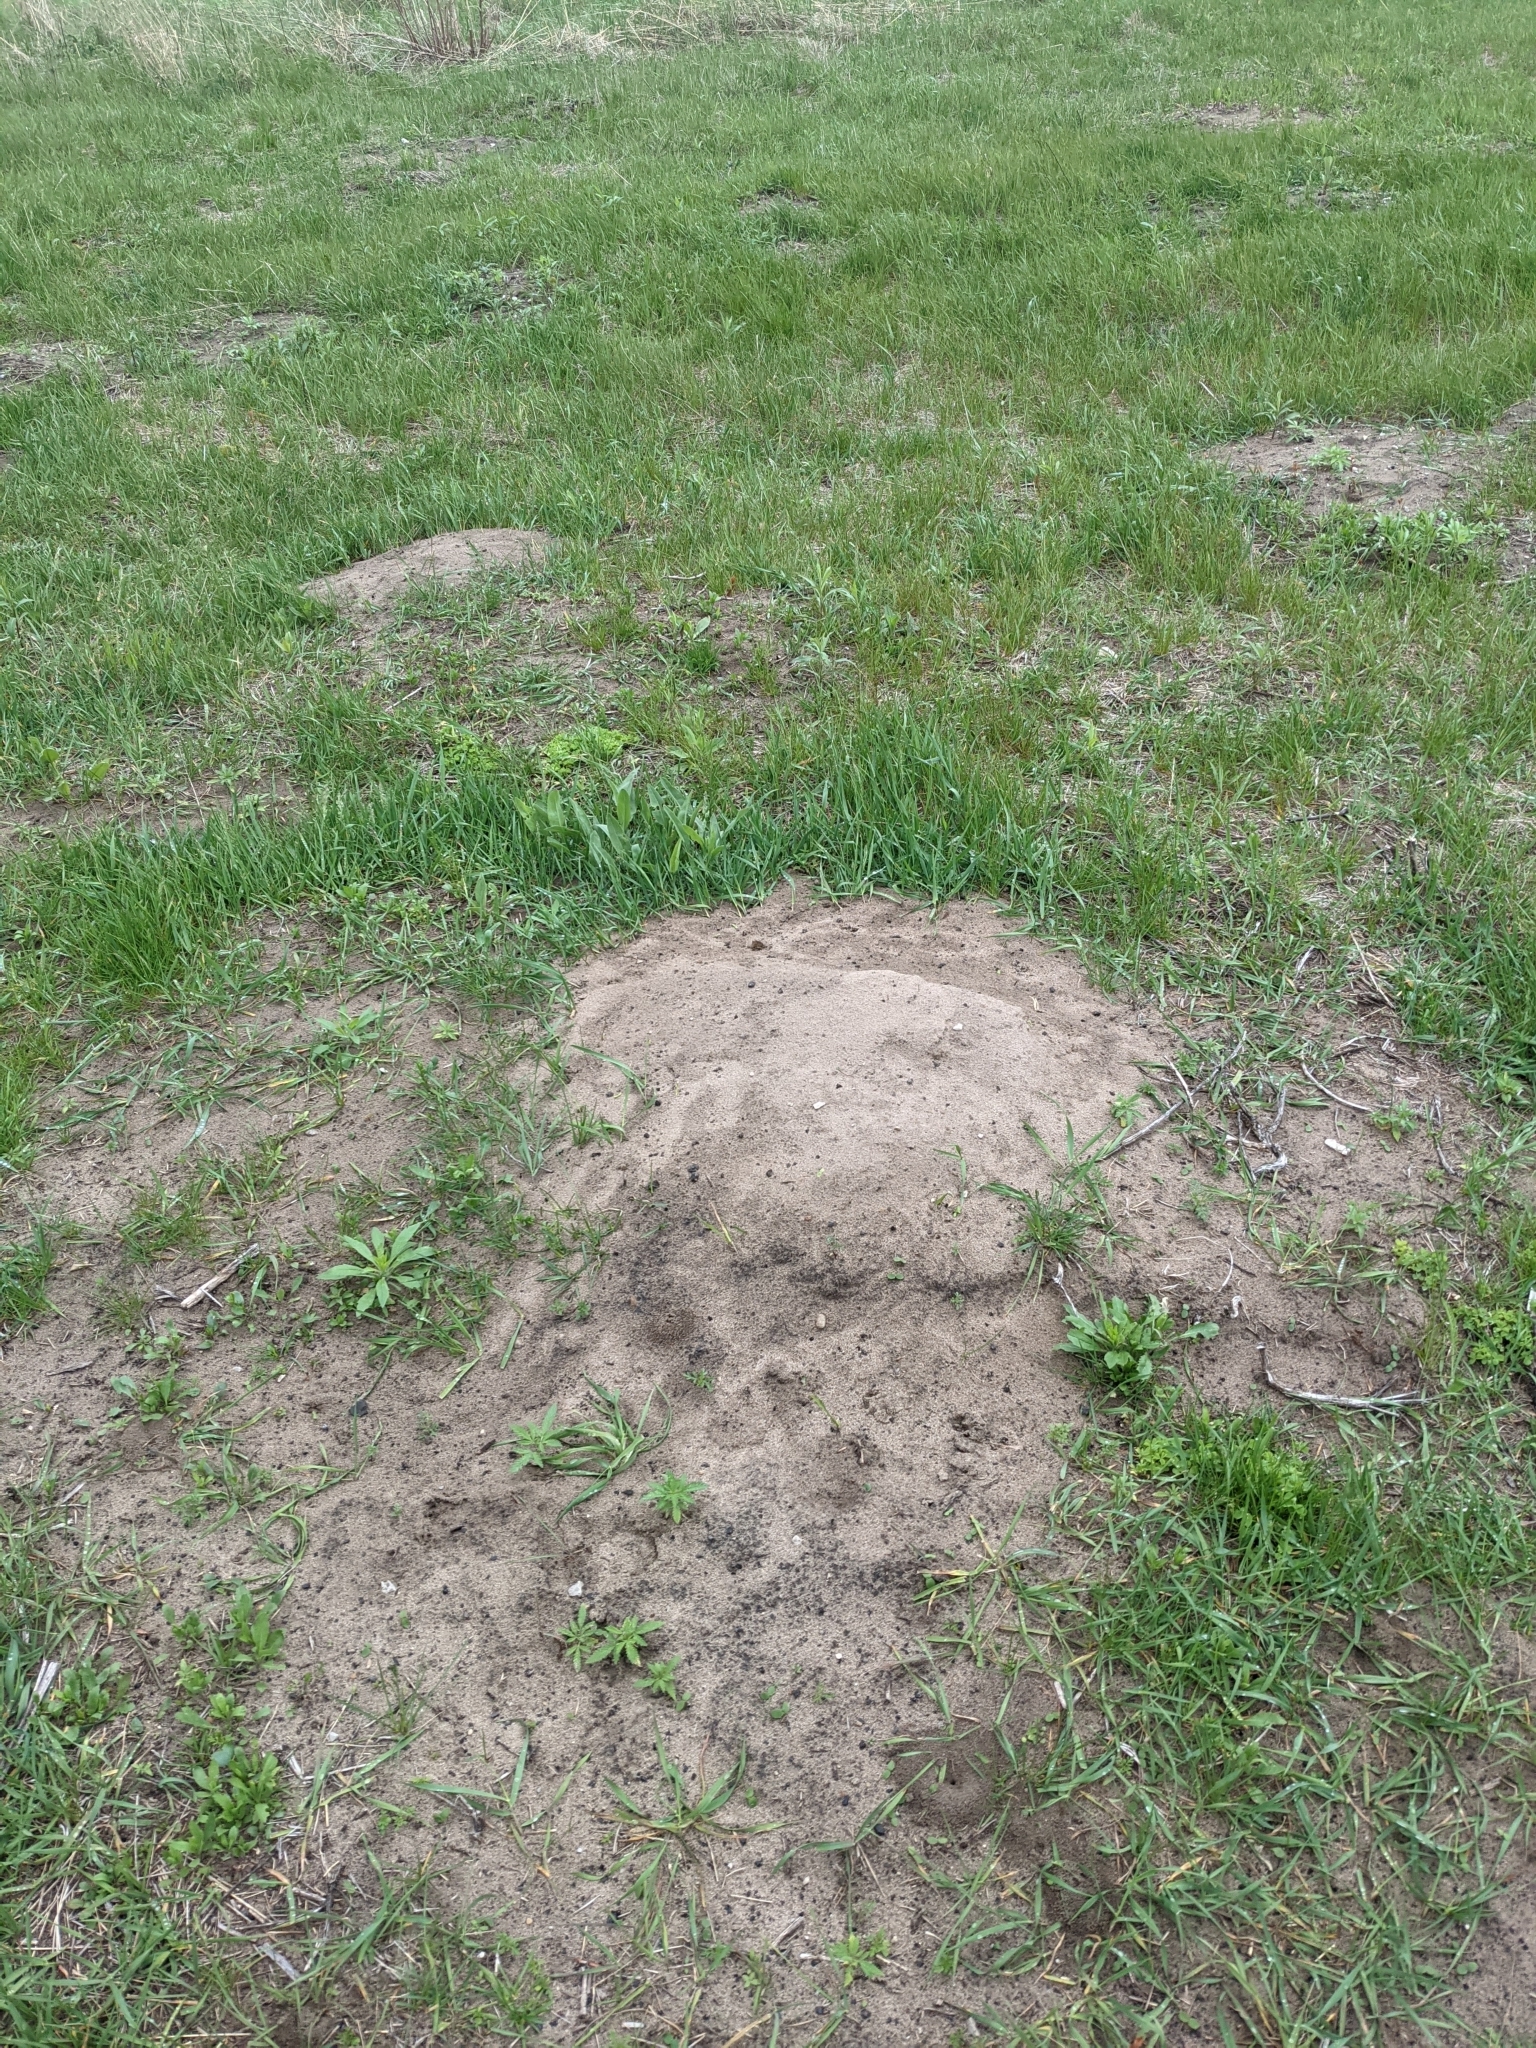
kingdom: Animalia
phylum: Chordata
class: Mammalia
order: Rodentia
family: Geomyidae
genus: Geomys
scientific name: Geomys bursarius
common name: Plains pocket gopher
